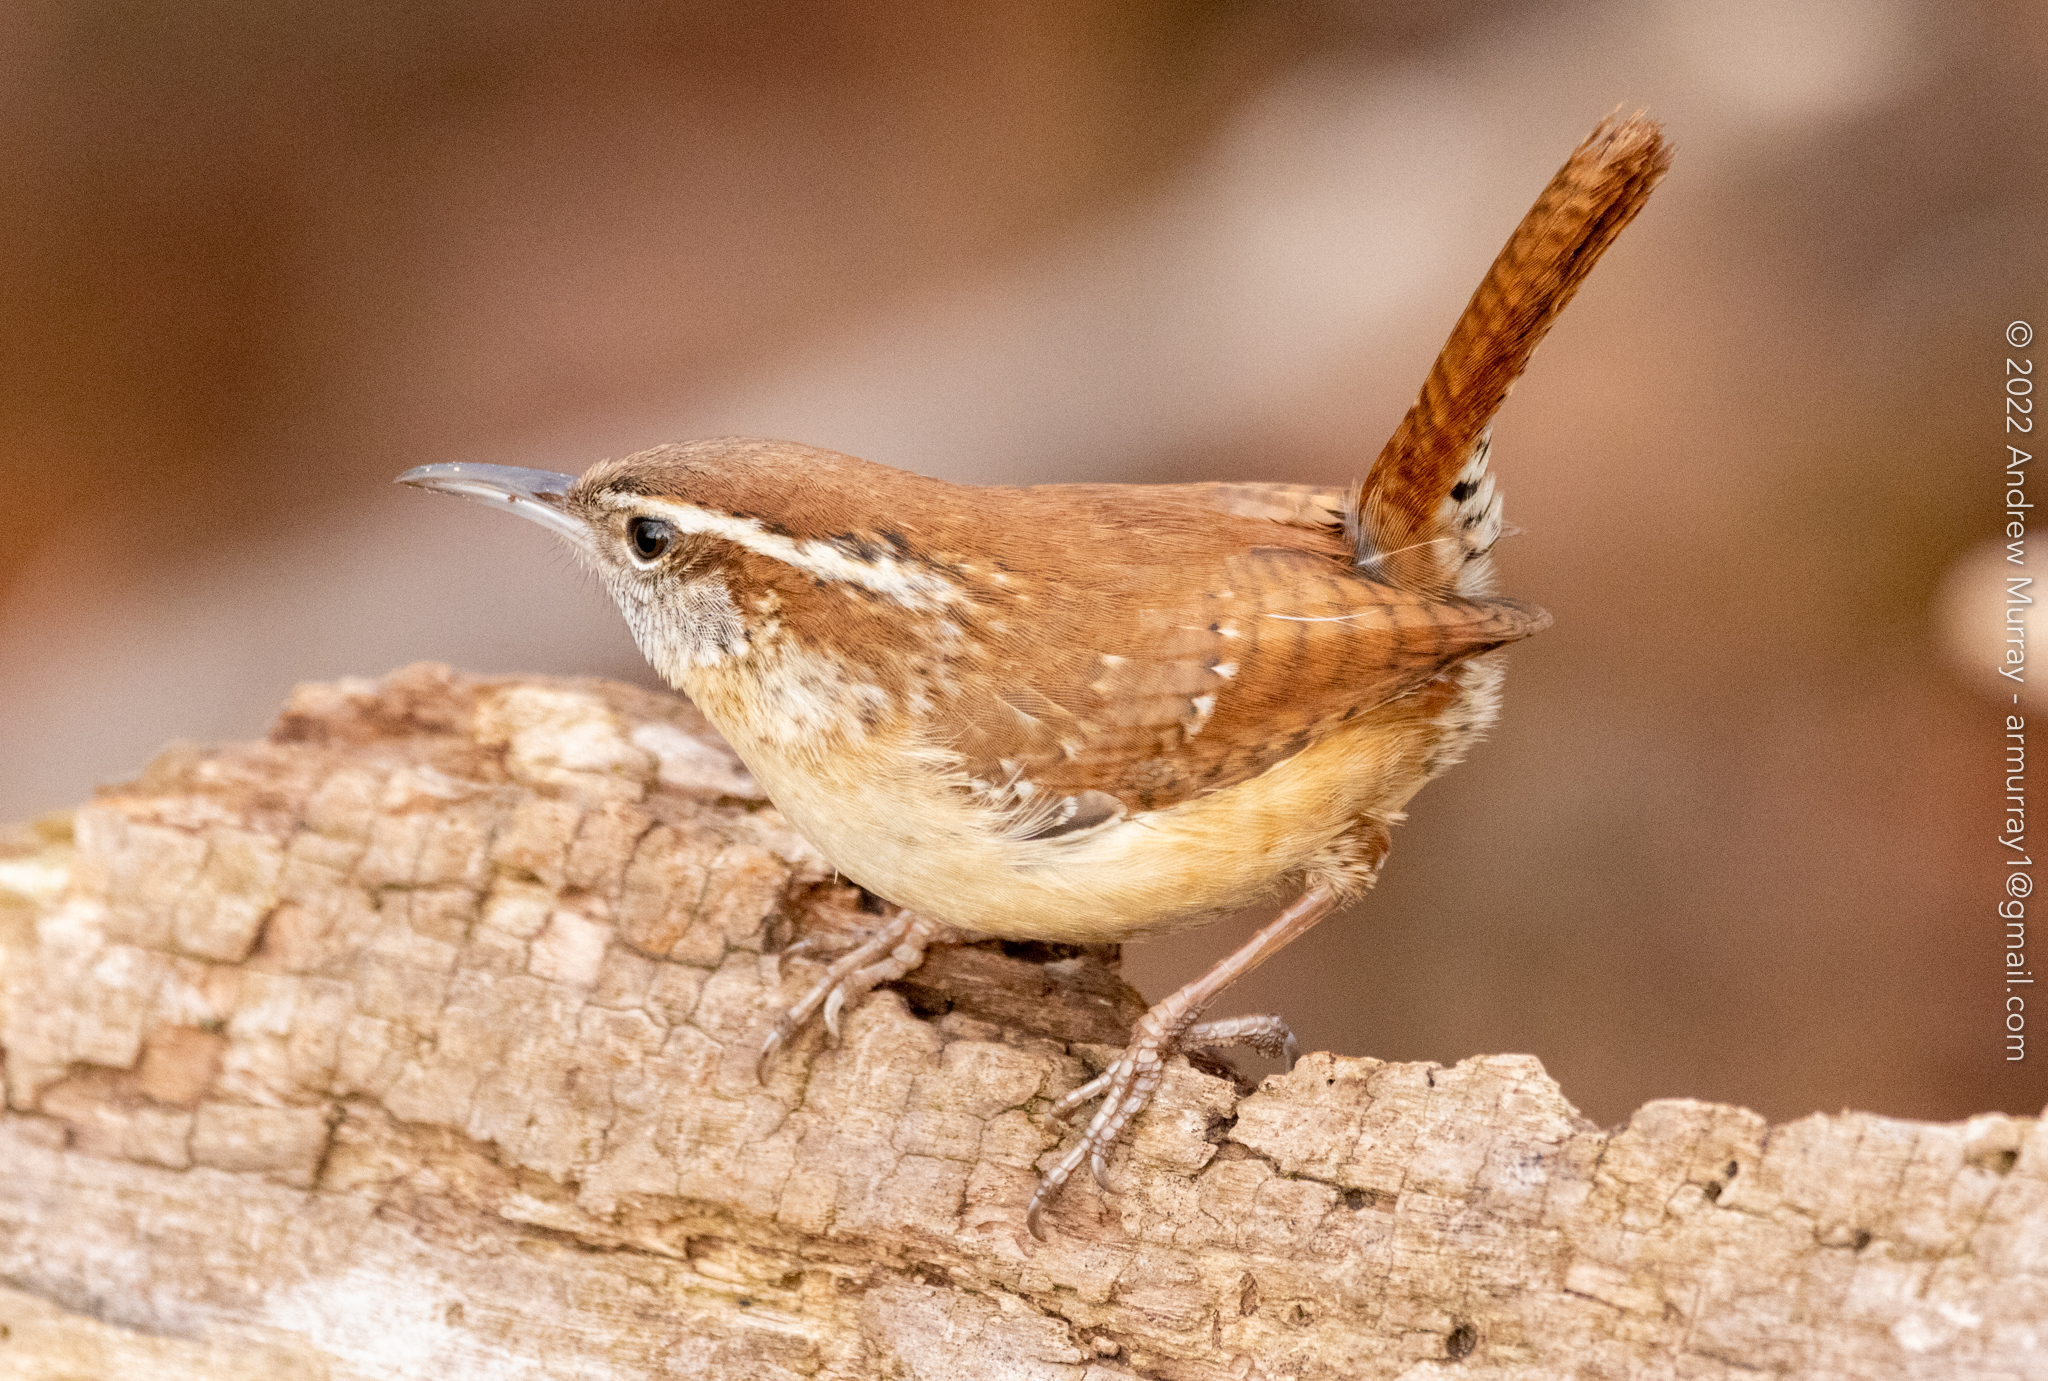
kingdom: Animalia
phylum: Chordata
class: Aves
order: Passeriformes
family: Troglodytidae
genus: Thryothorus
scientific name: Thryothorus ludovicianus
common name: Carolina wren
